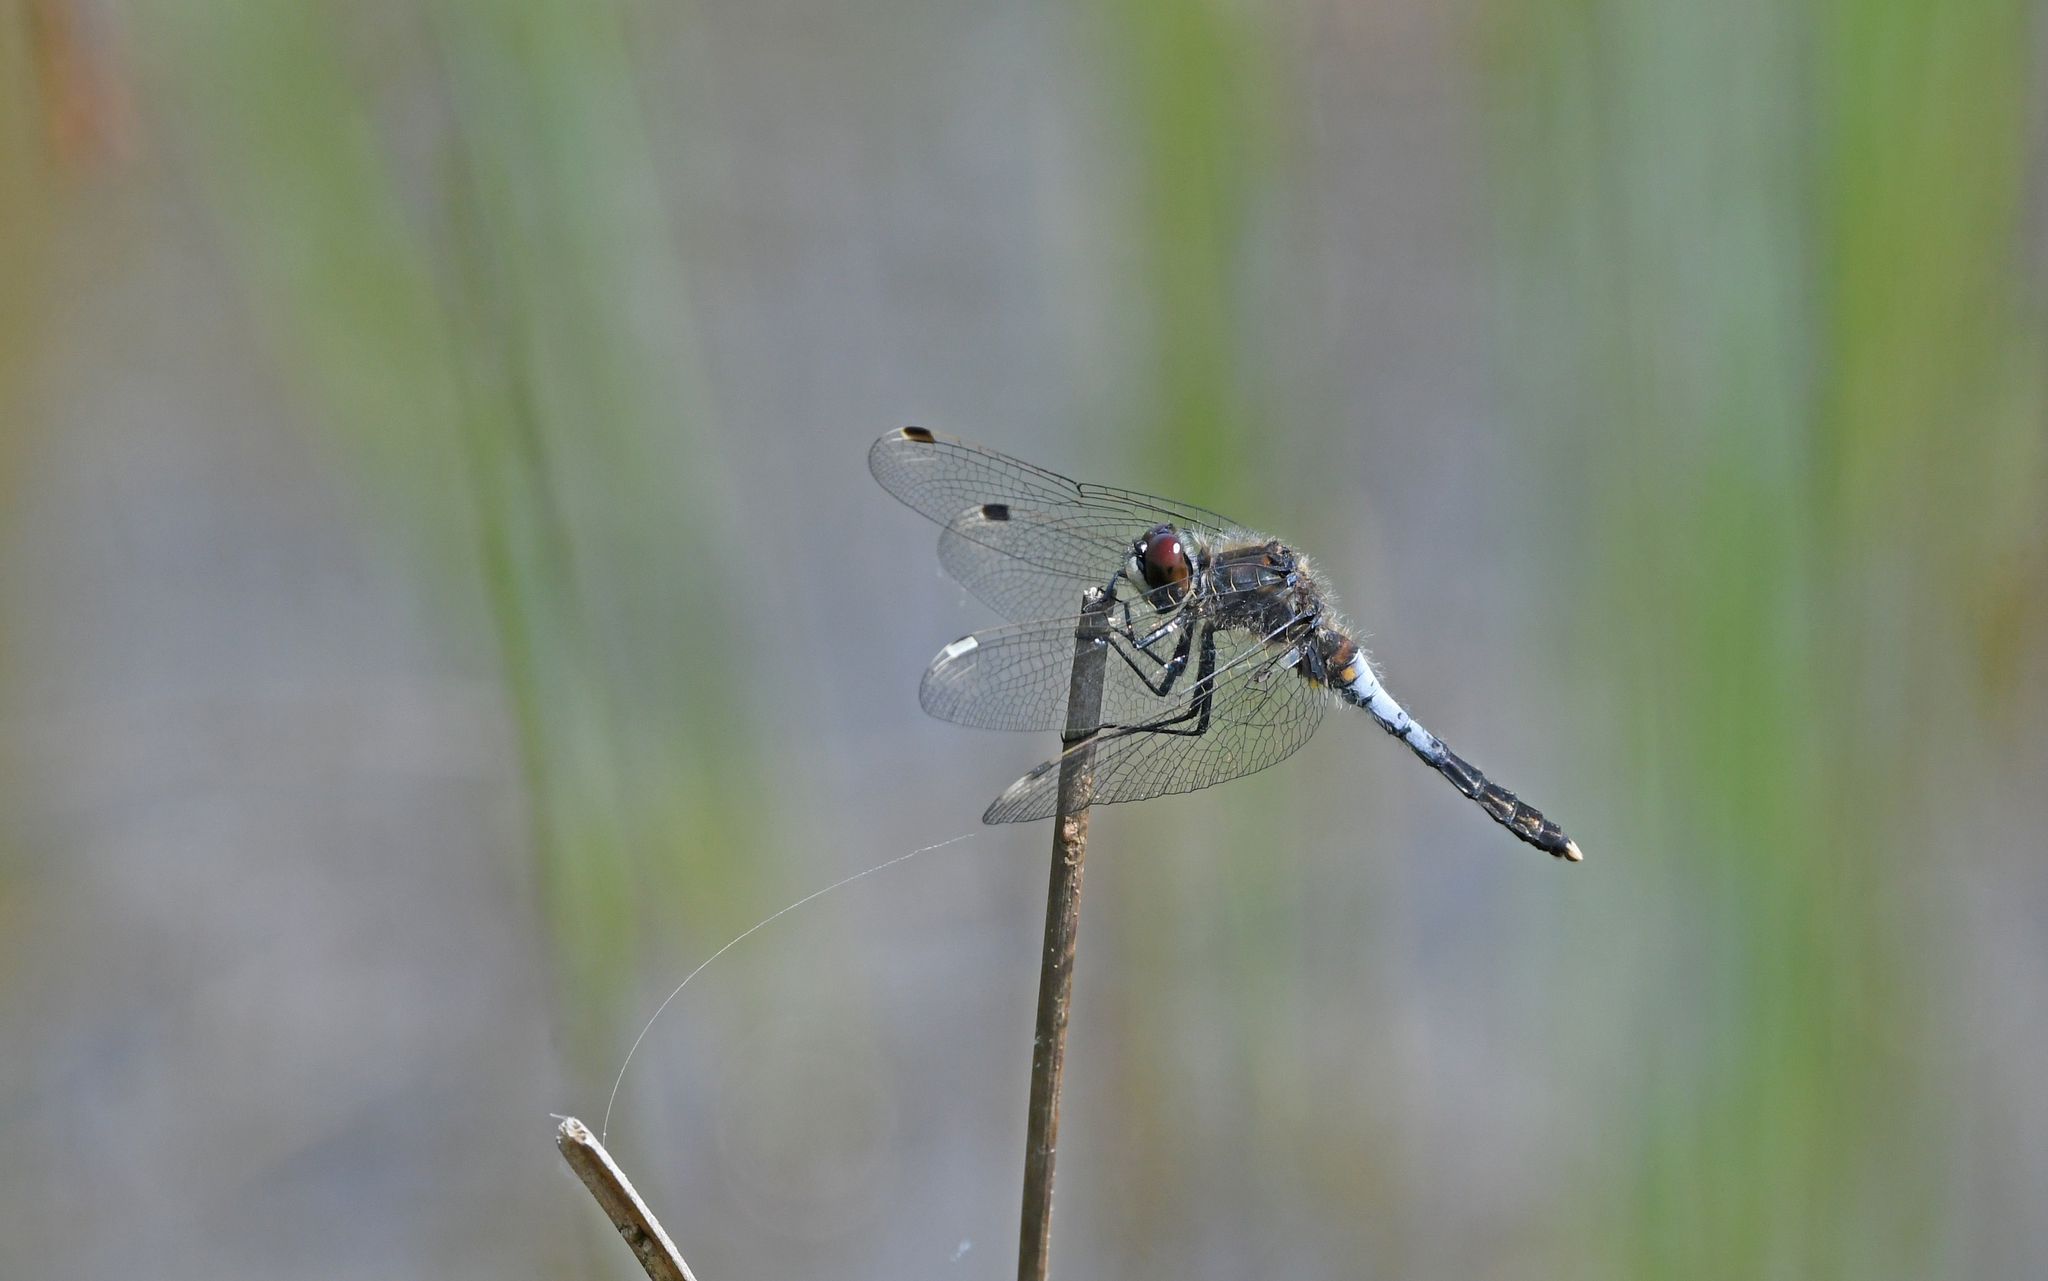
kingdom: Animalia
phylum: Arthropoda
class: Insecta
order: Odonata
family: Libellulidae
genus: Leucorrhinia
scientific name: Leucorrhinia caudalis
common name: Lilypad whiteface
